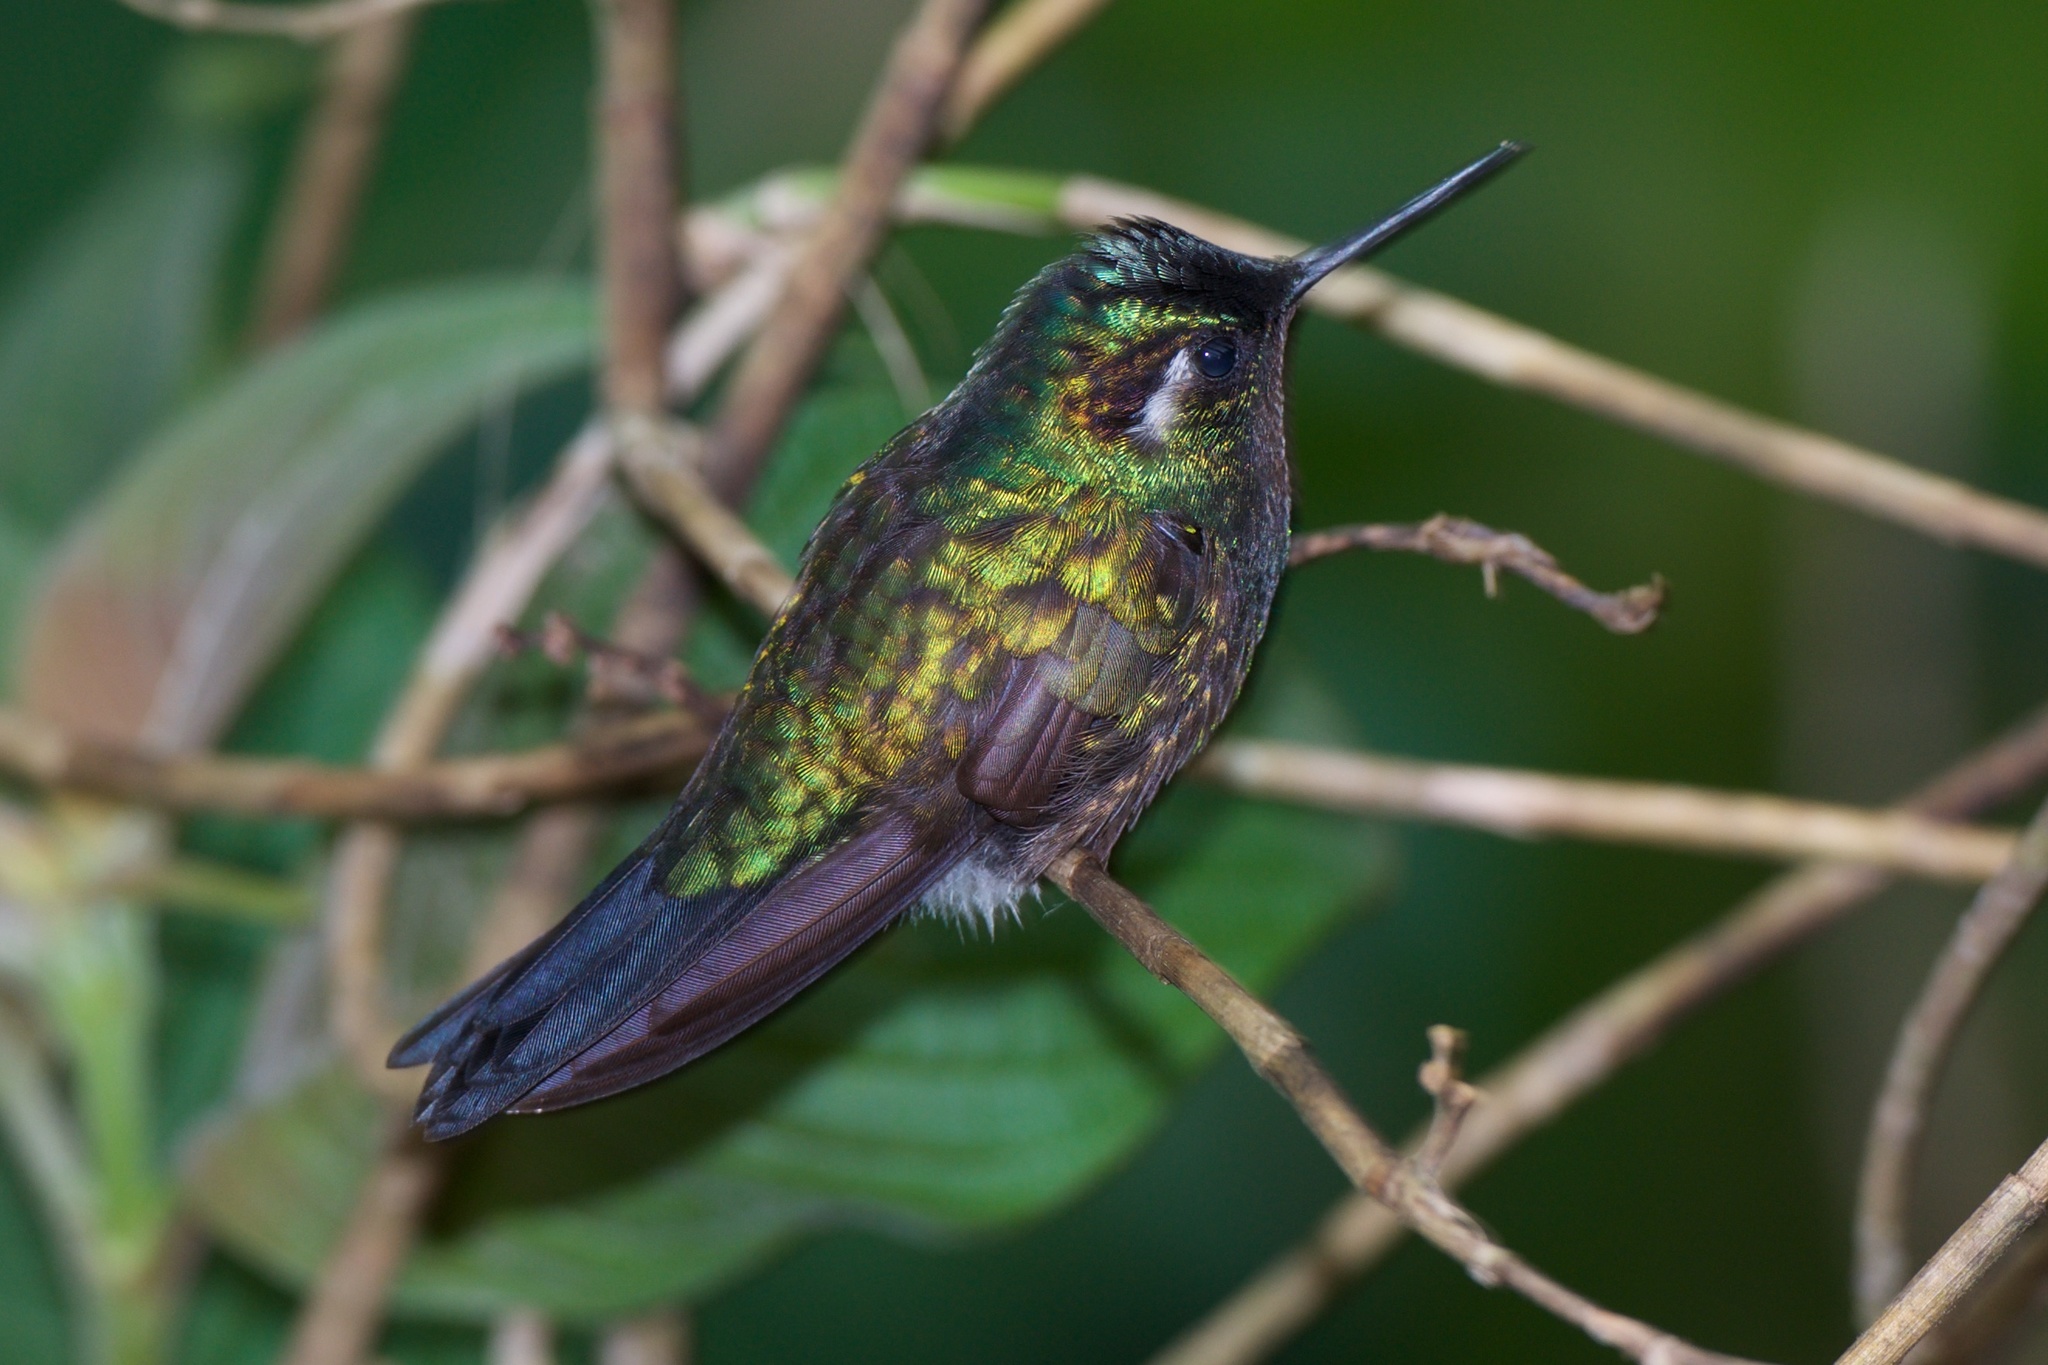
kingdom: Animalia
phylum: Chordata
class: Aves
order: Apodiformes
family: Trochilidae
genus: Lampornis
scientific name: Lampornis calolaemus
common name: Purple-throated mountain-gem
